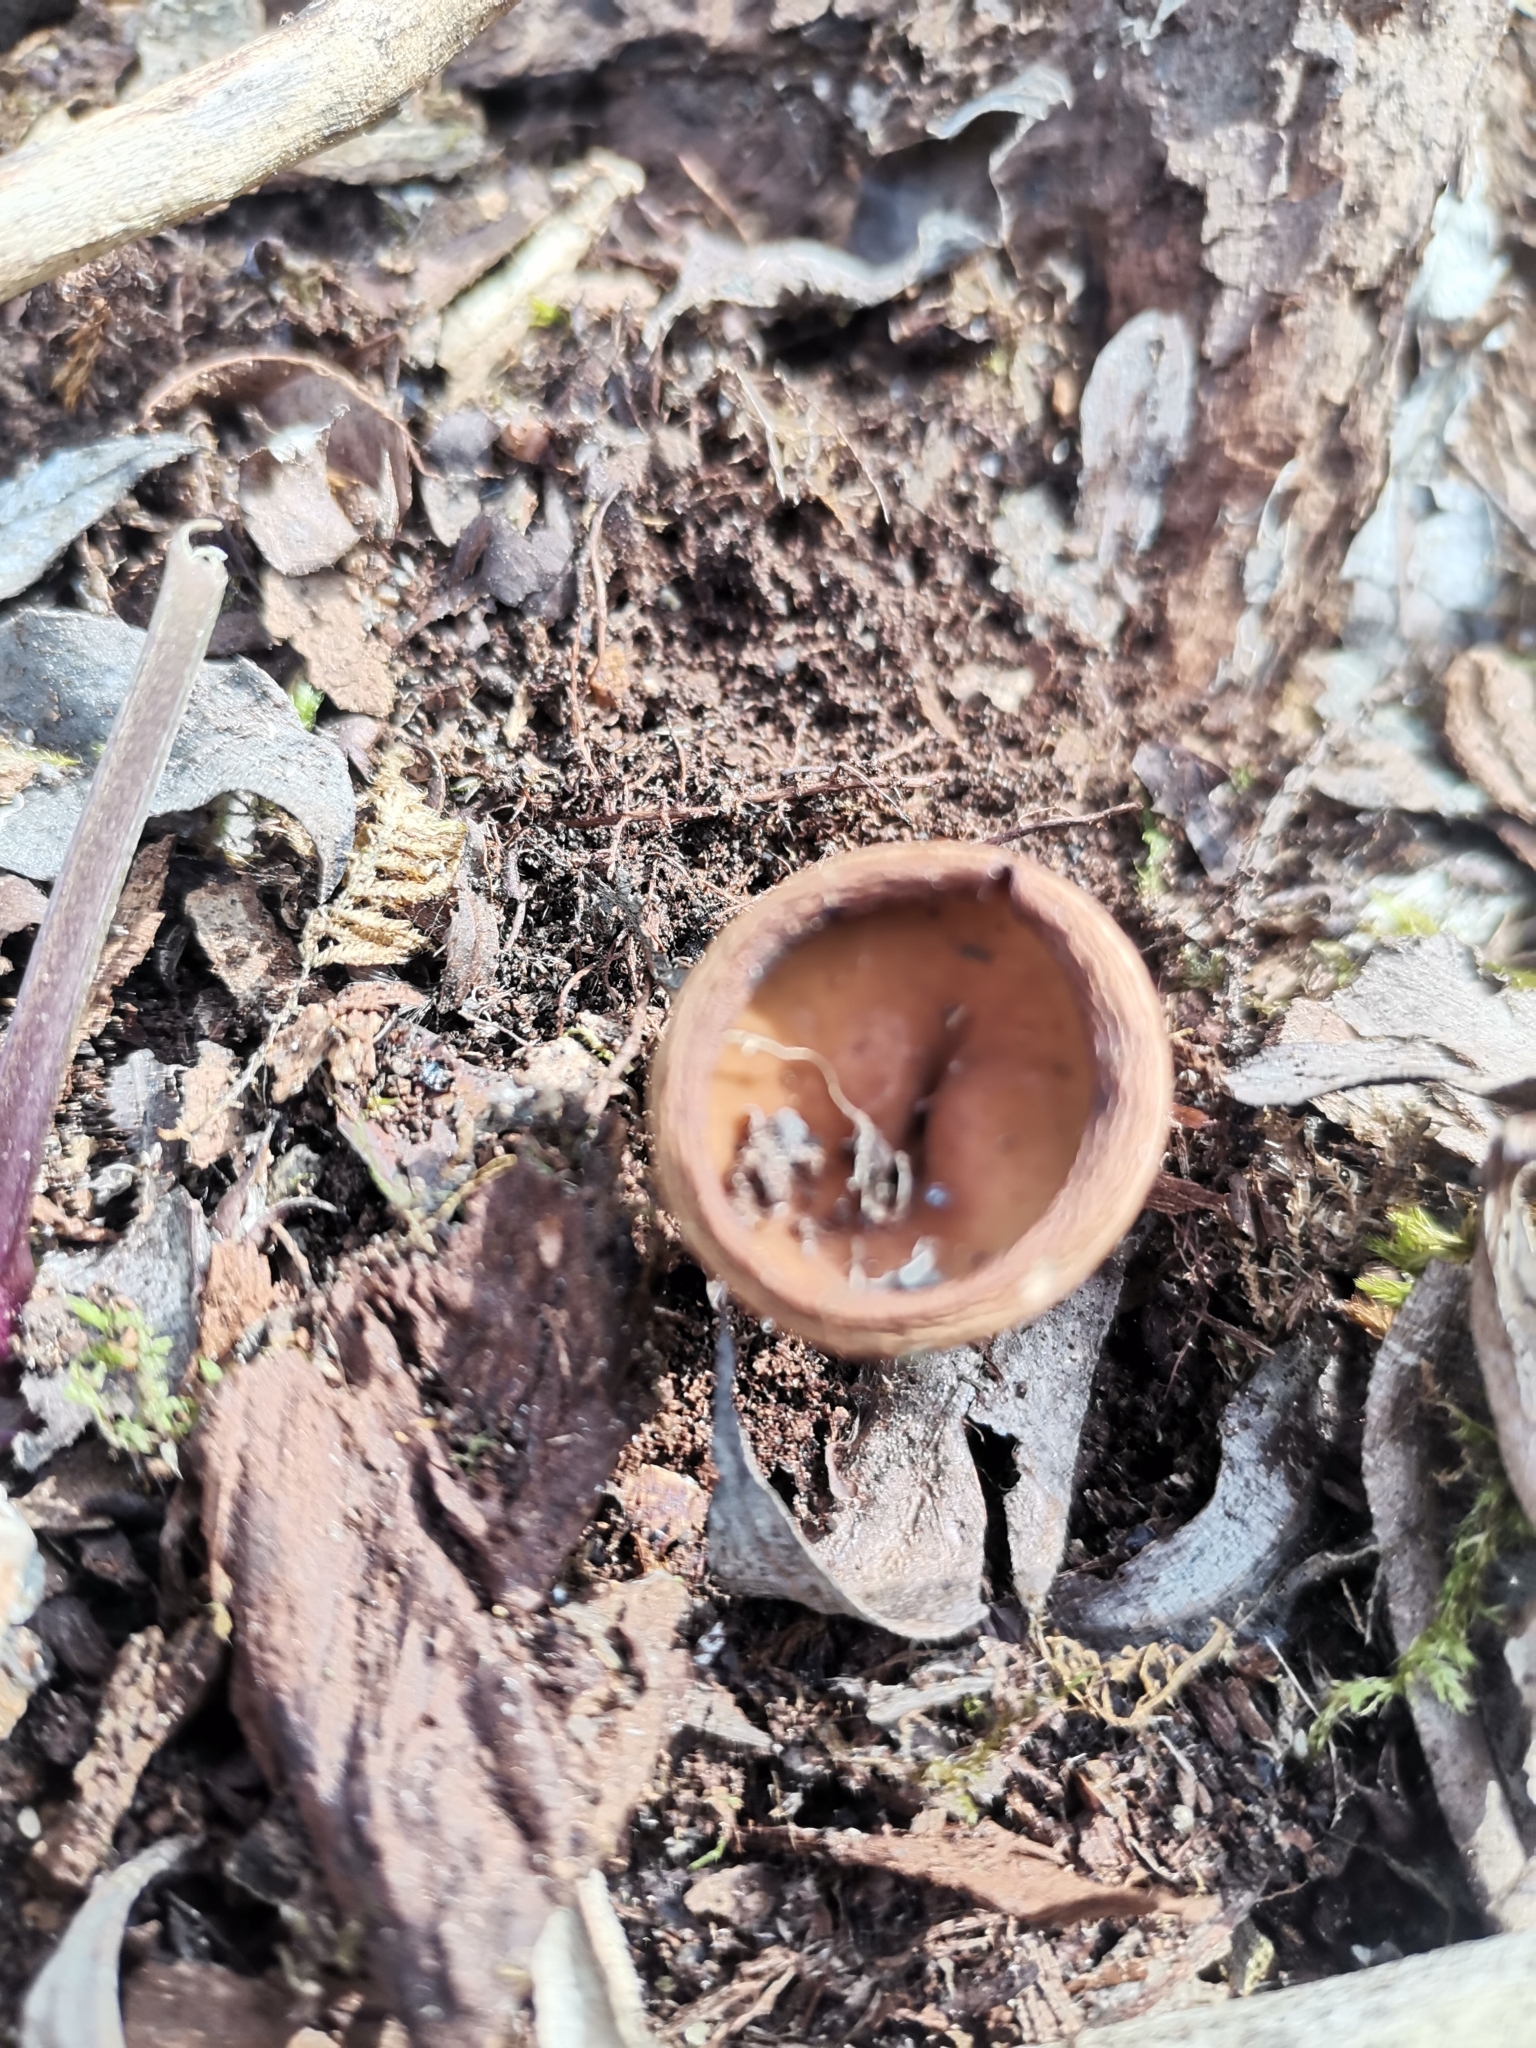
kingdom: Fungi
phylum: Ascomycota
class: Leotiomycetes
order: Helotiales
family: Sclerotiniaceae
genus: Dumontinia
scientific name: Dumontinia tuberosa
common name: Anemone cup
